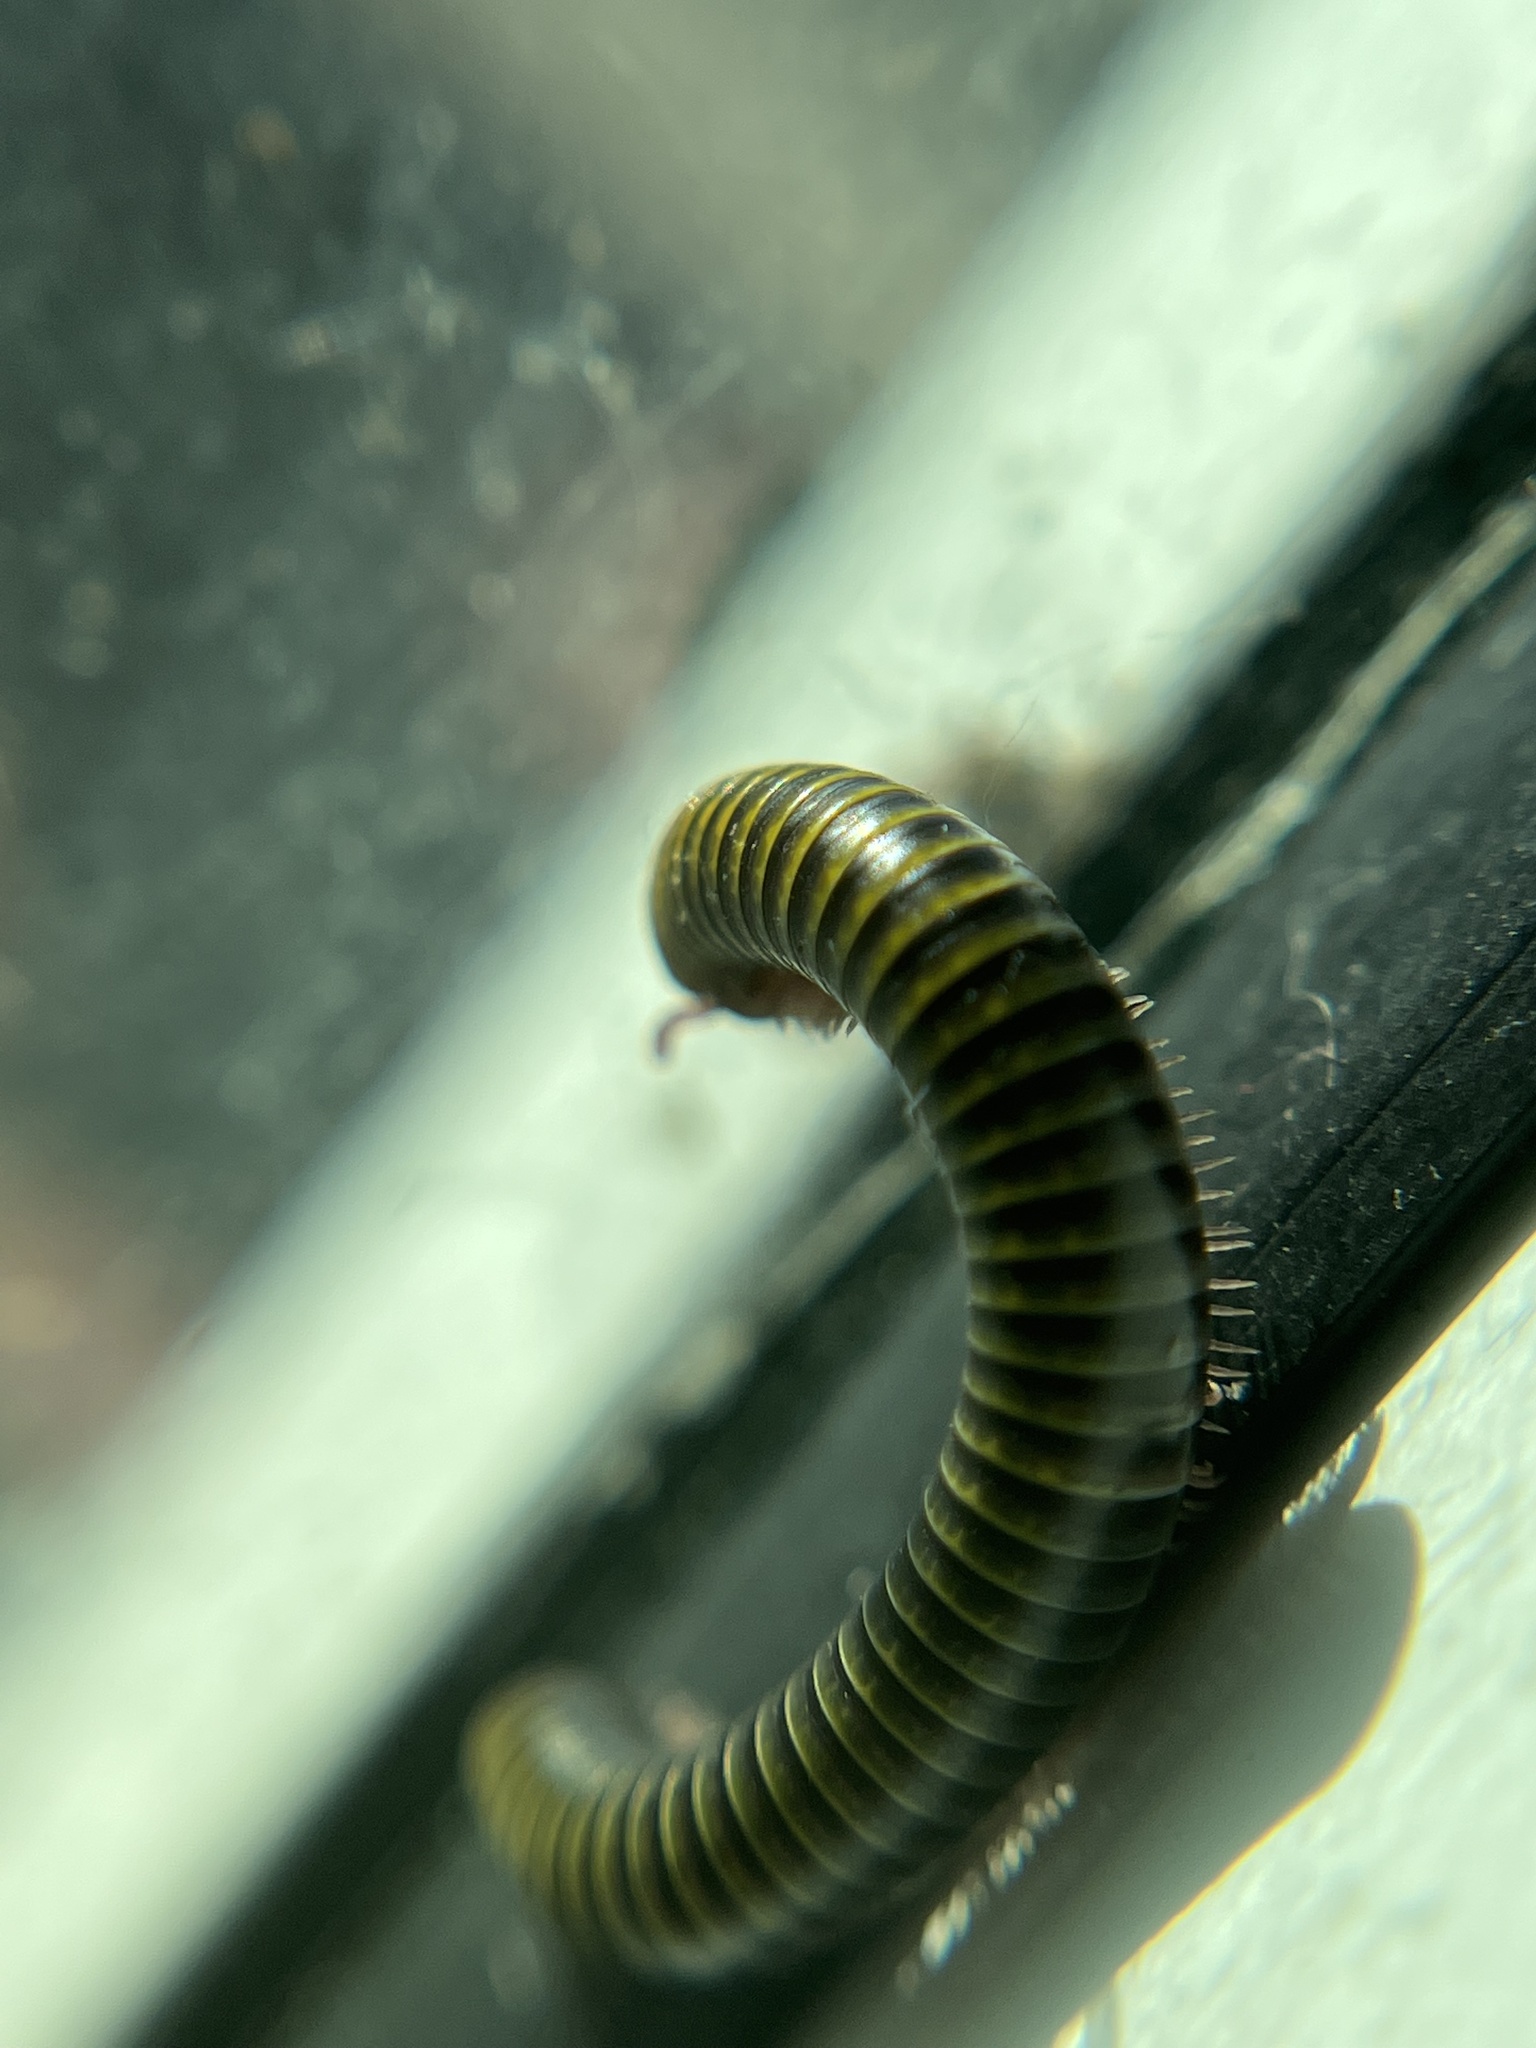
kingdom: Animalia
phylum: Arthropoda
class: Diplopoda
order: Spirobolida
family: Rhinocricidae
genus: Anadenobolus
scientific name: Anadenobolus monilicornis
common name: Caribbean millipede
